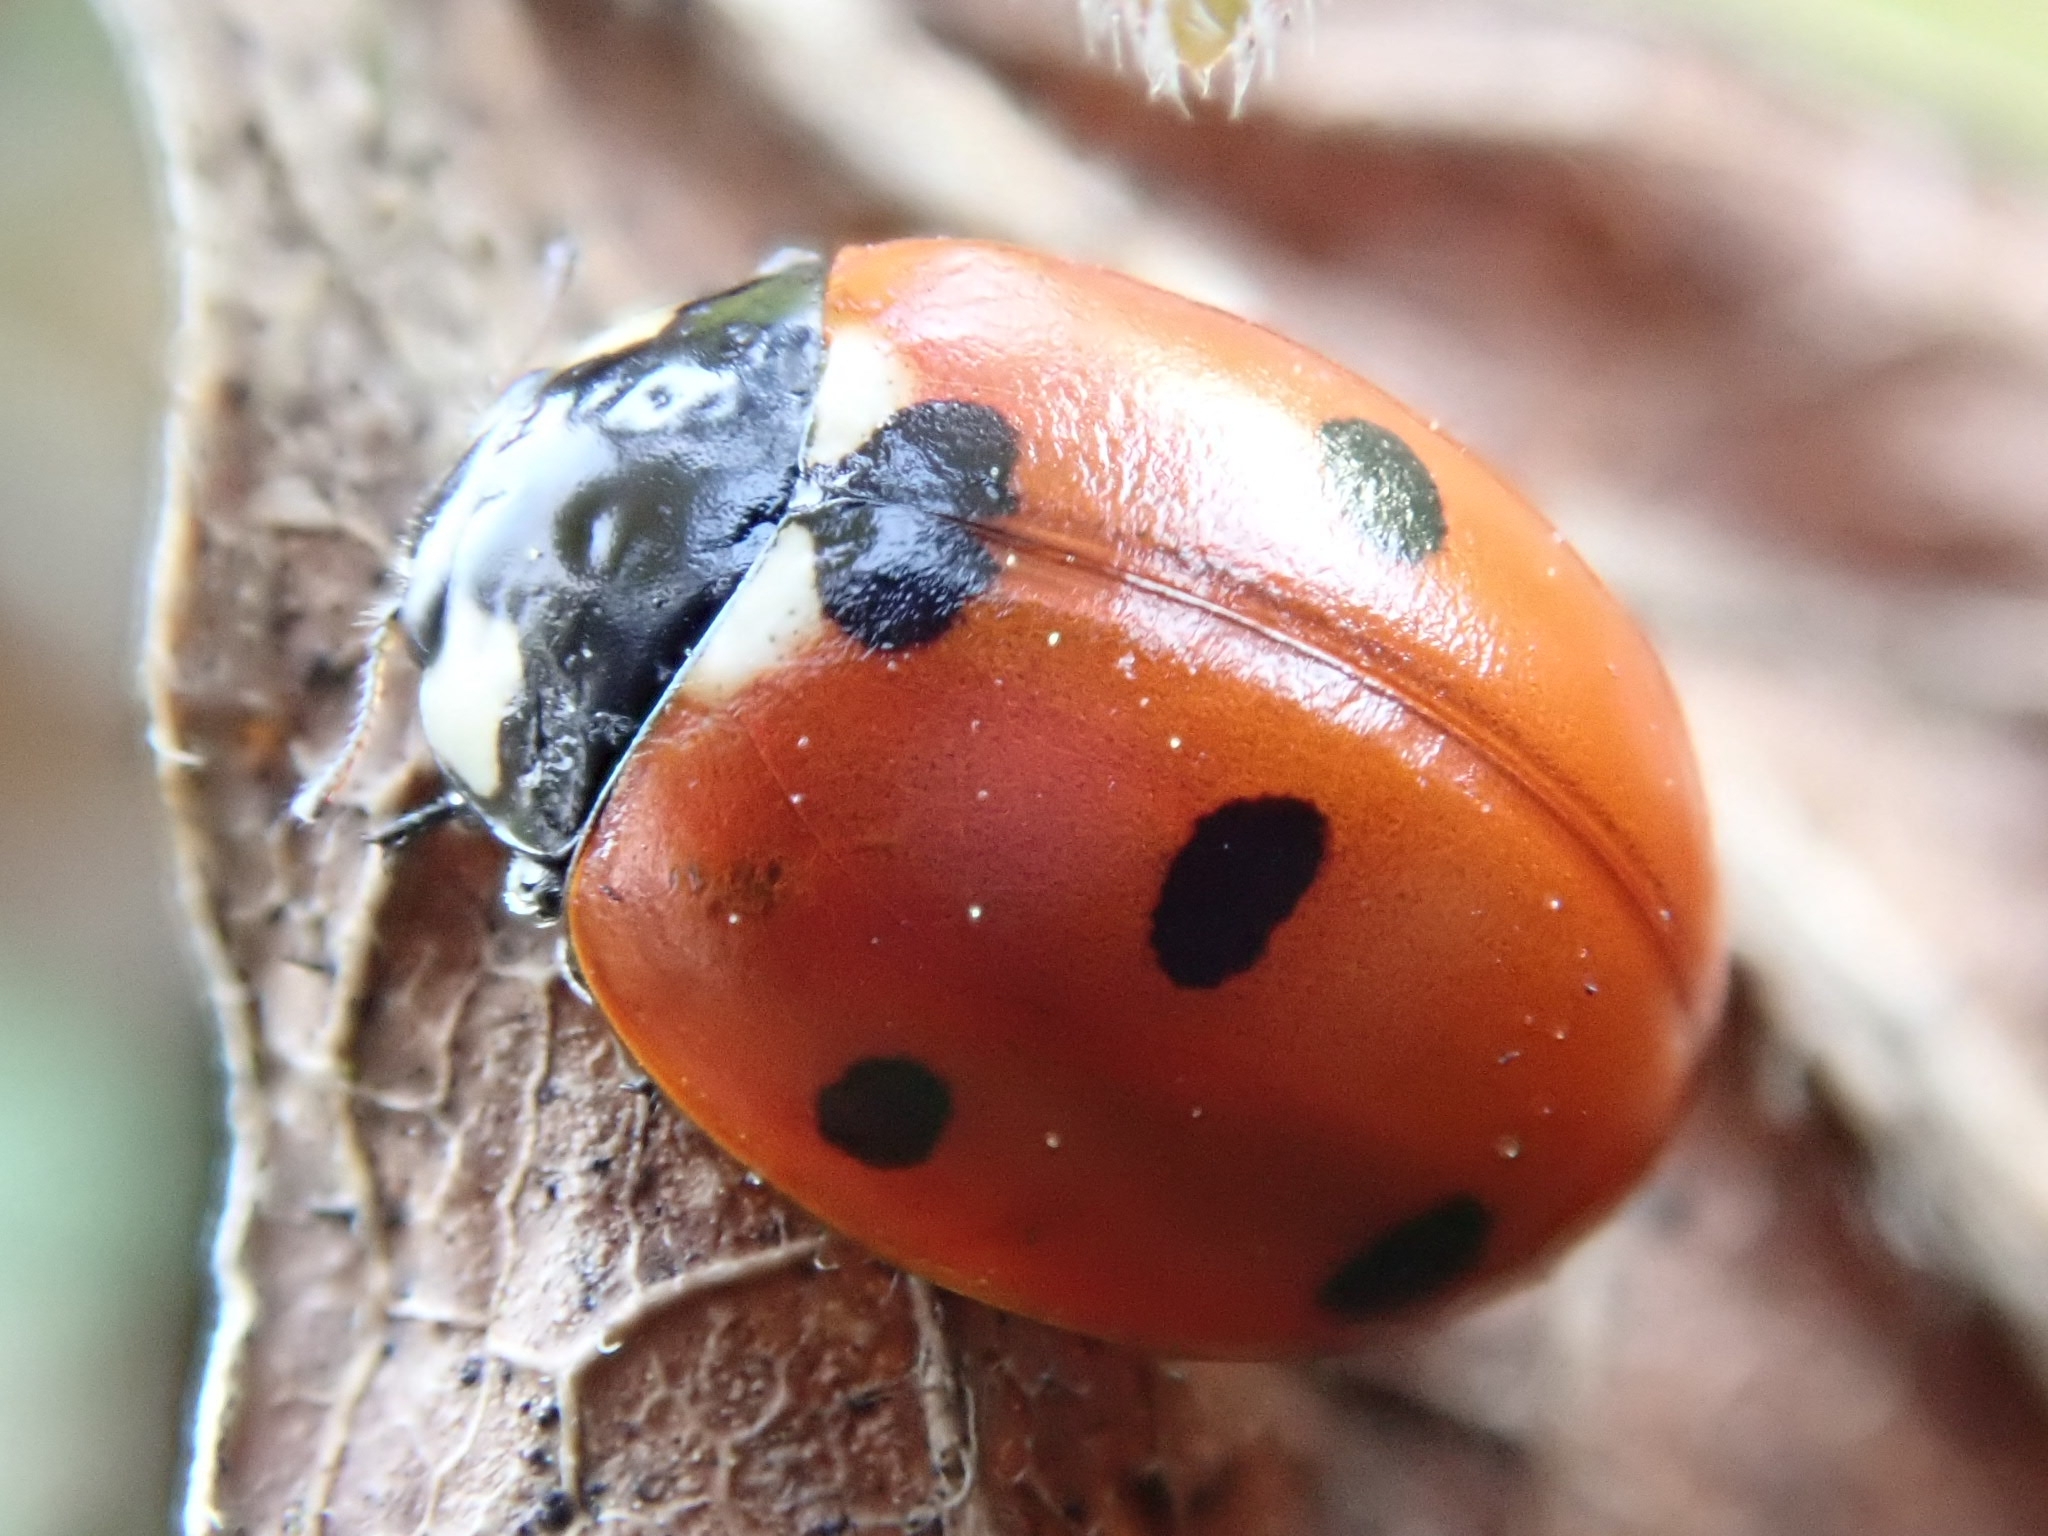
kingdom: Animalia
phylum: Arthropoda
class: Insecta
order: Coleoptera
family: Coccinellidae
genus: Coccinella
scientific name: Coccinella septempunctata
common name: Sevenspotted lady beetle
